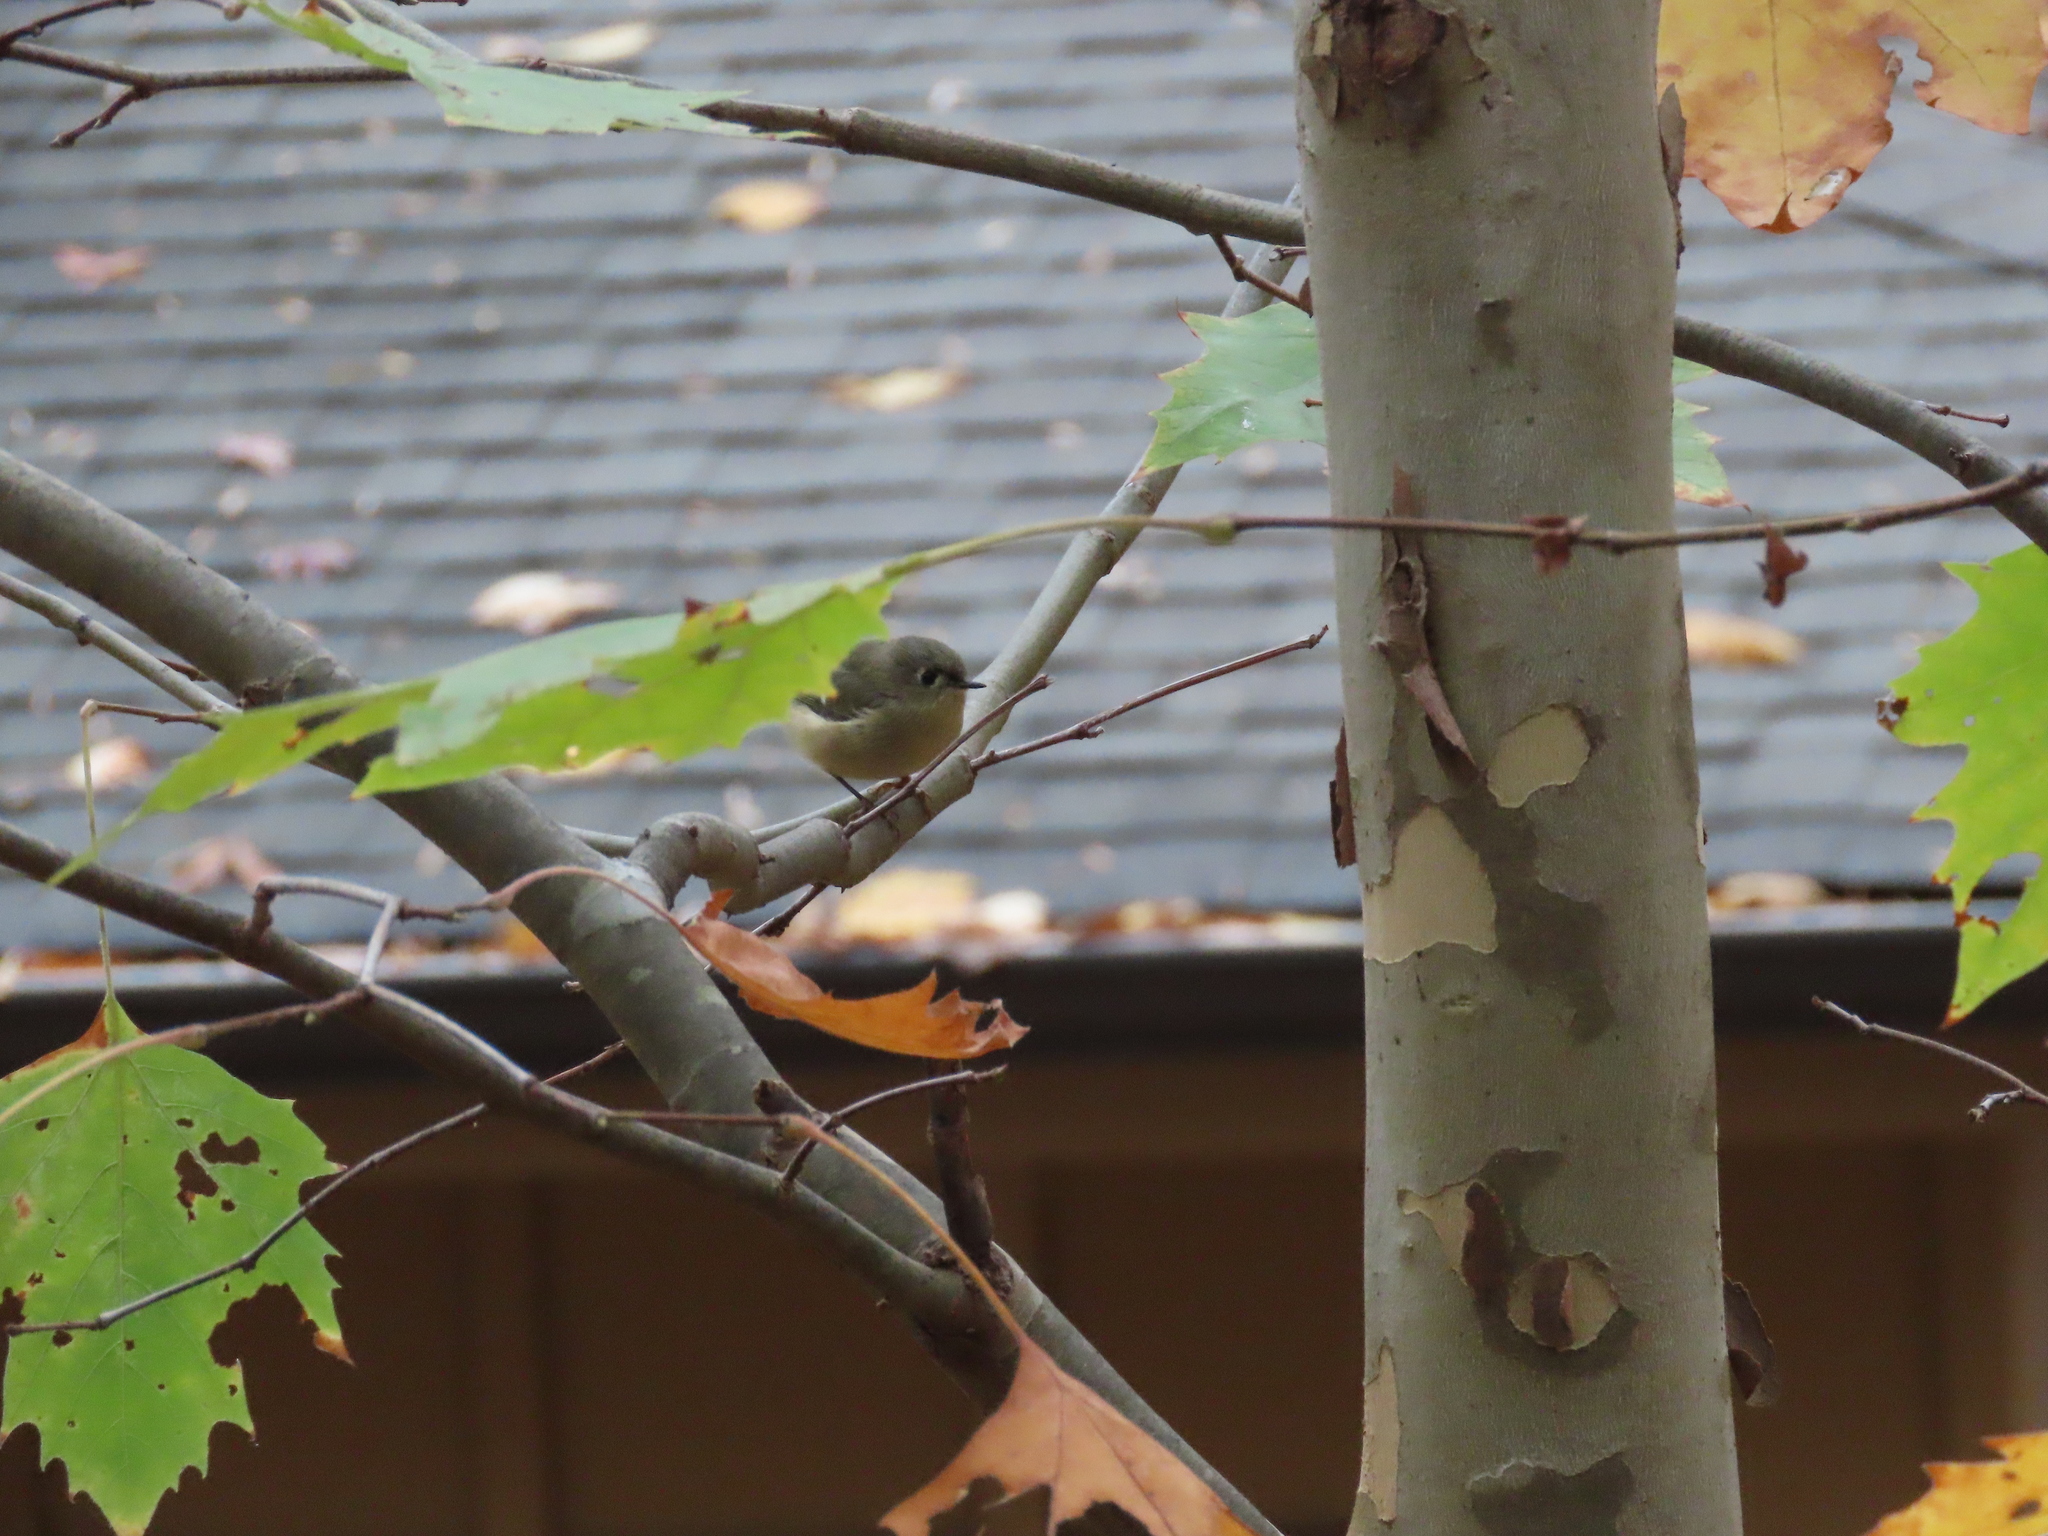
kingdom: Animalia
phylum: Chordata
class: Aves
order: Passeriformes
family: Regulidae
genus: Regulus
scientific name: Regulus calendula
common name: Ruby-crowned kinglet
